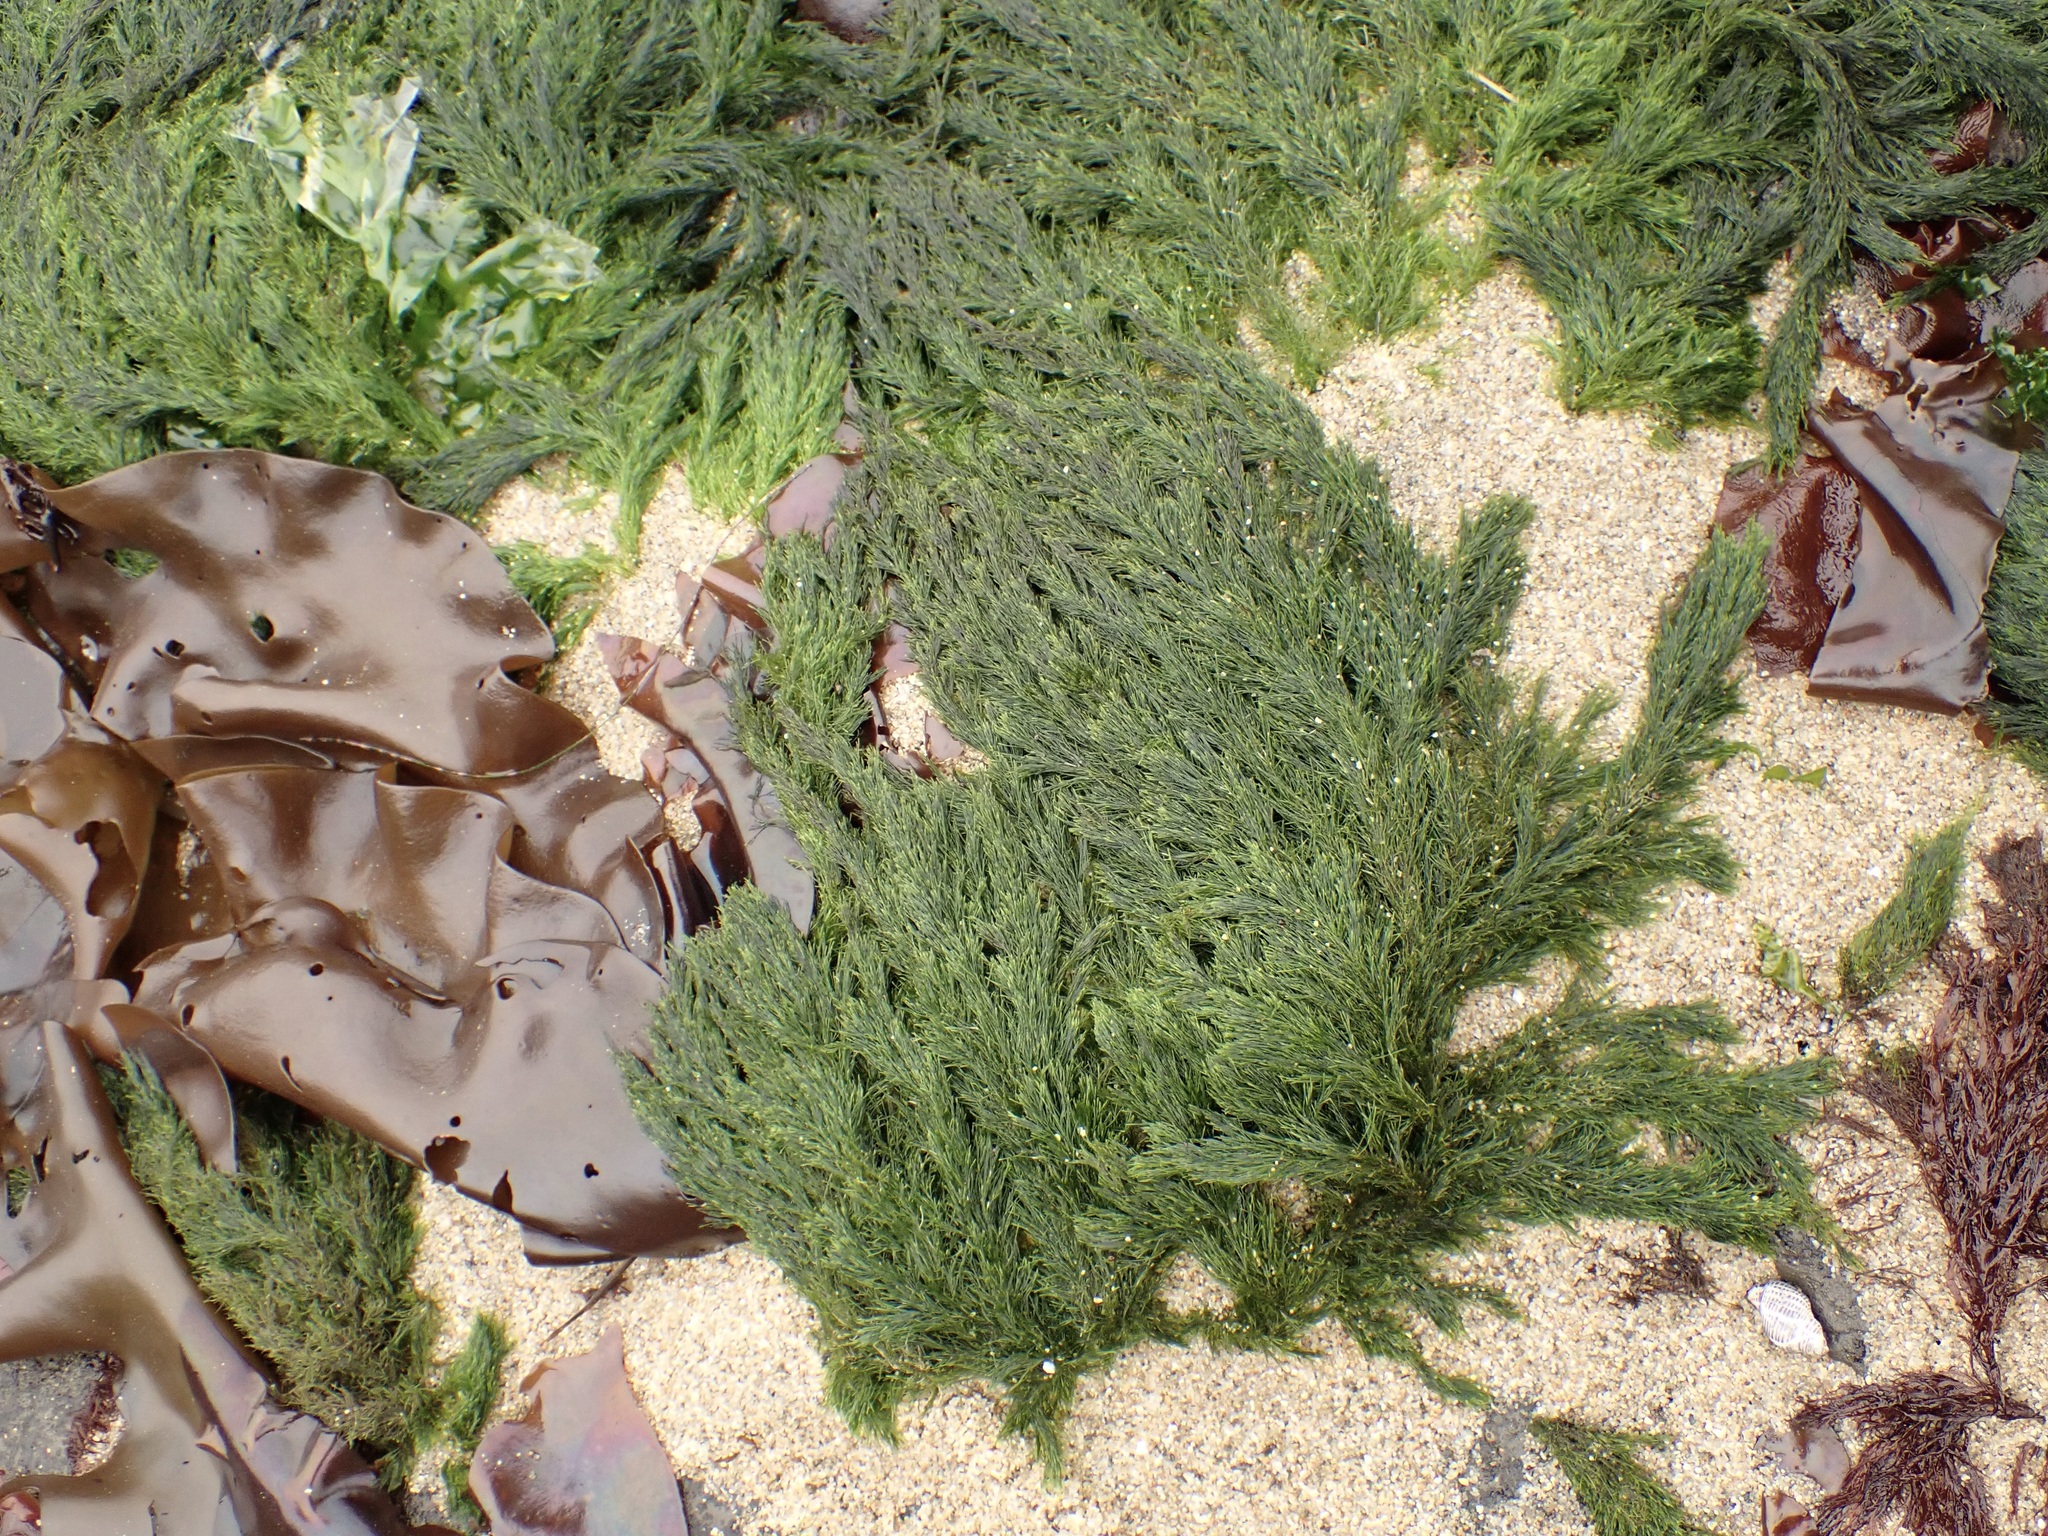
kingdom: Plantae
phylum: Chlorophyta
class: Ulvophyceae
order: Ulotrichales
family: Ulotrichaceae
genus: Acrosiphonia
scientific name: Acrosiphonia
